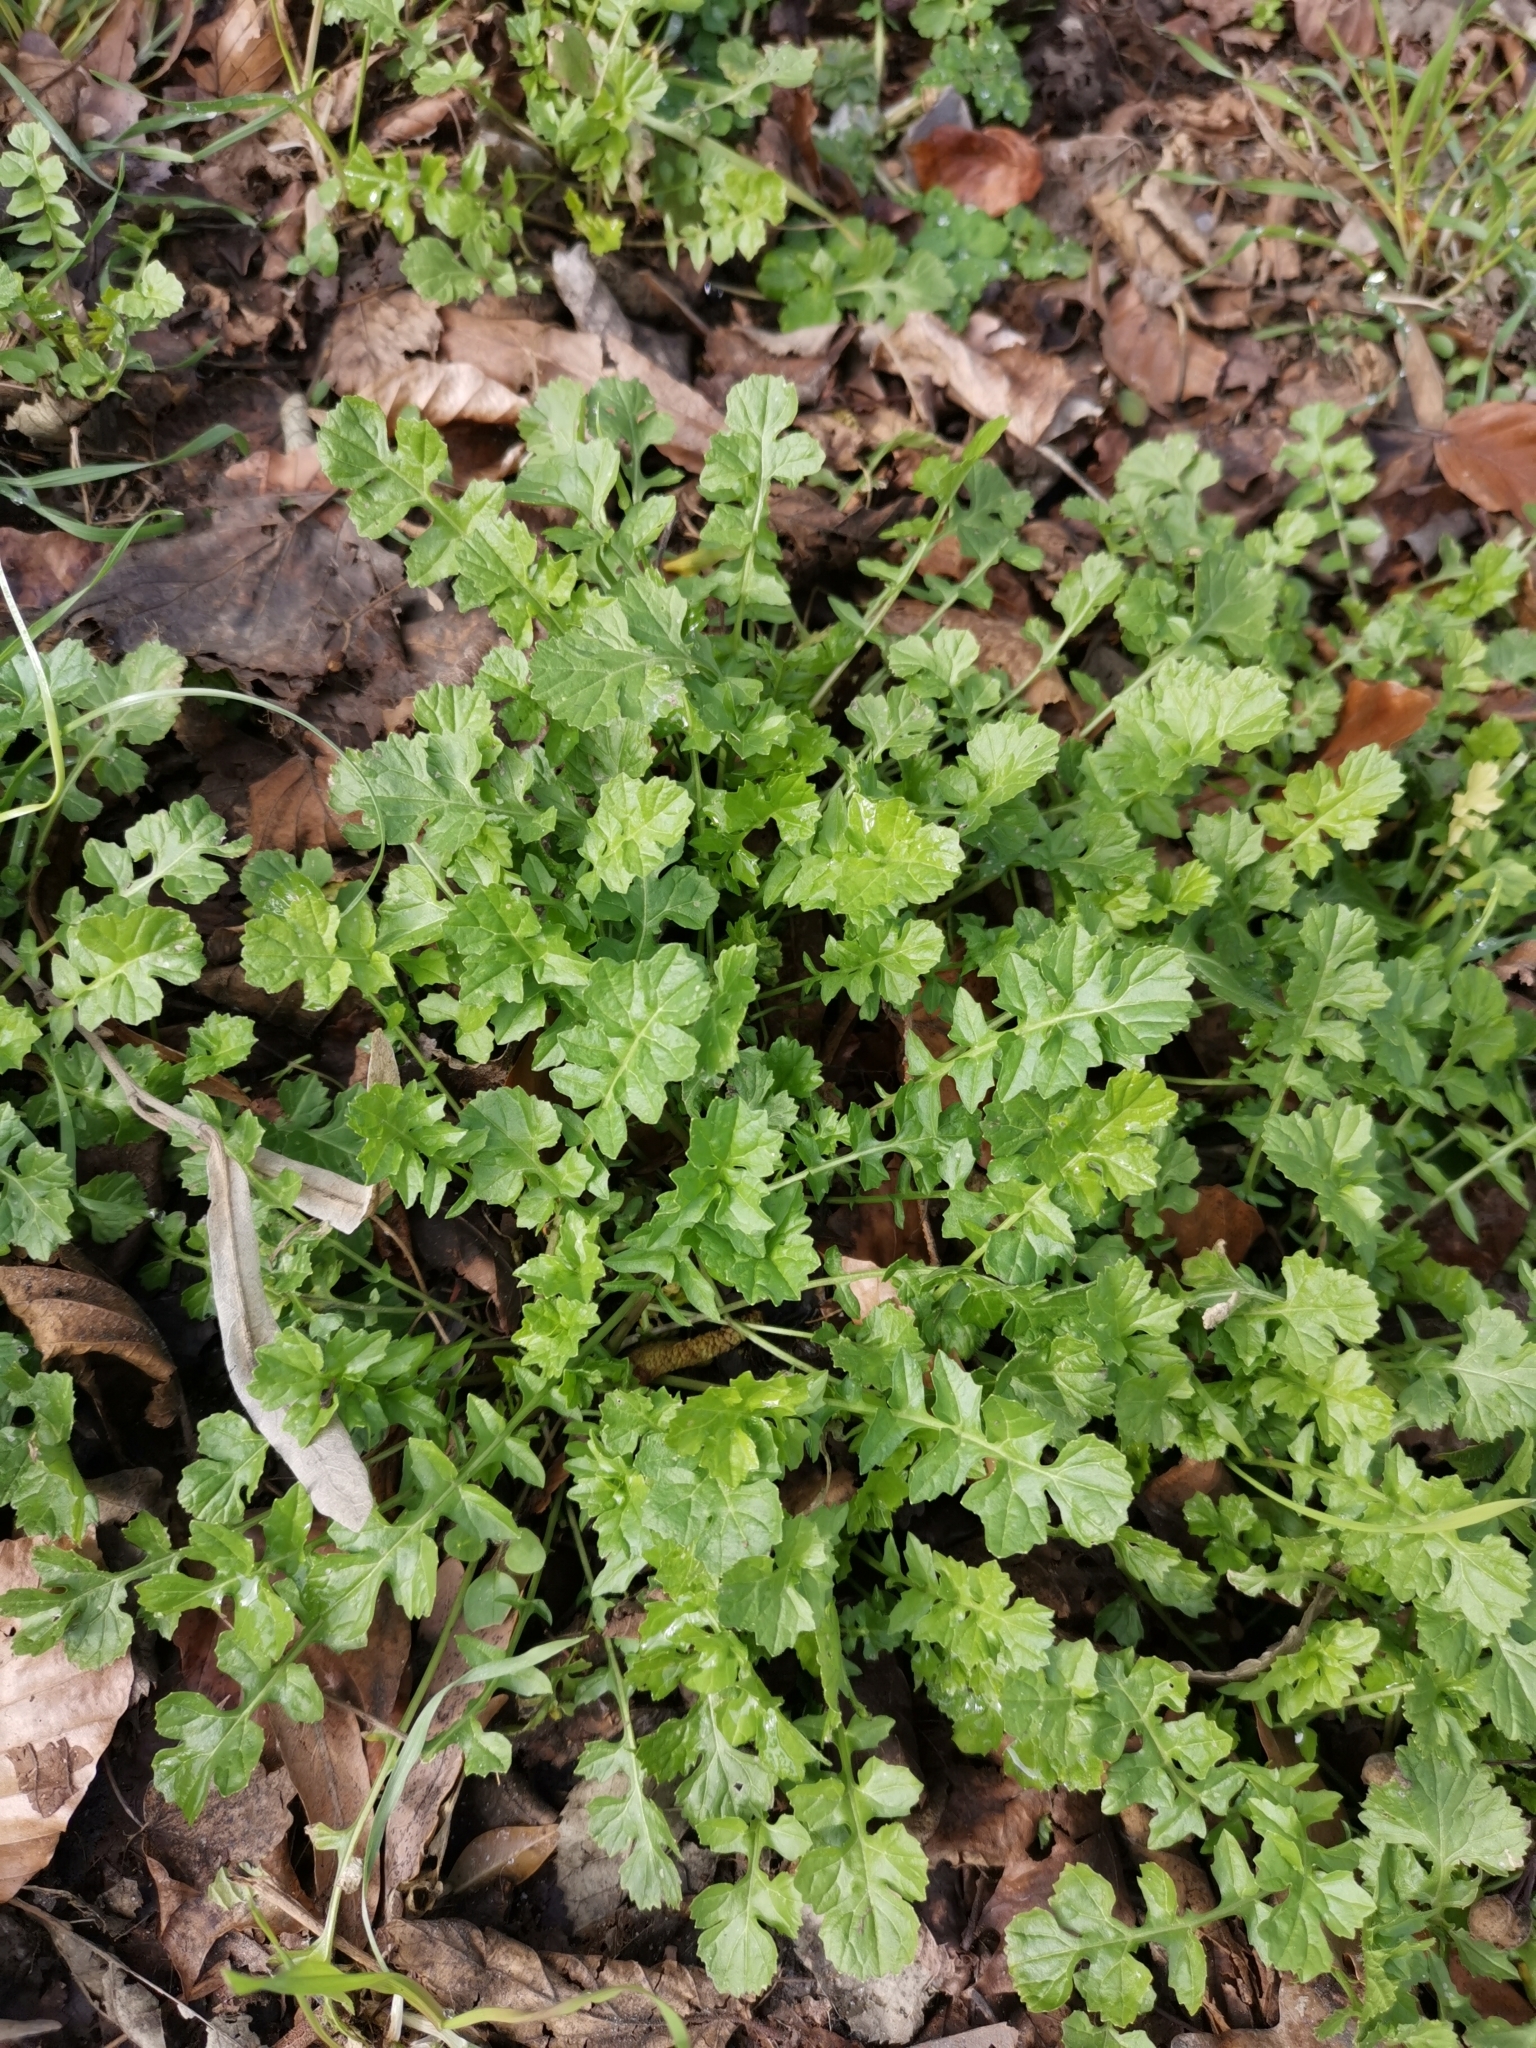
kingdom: Plantae
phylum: Tracheophyta
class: Magnoliopsida
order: Brassicales
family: Brassicaceae
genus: Sisymbrium
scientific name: Sisymbrium officinale
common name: Hedge mustard
